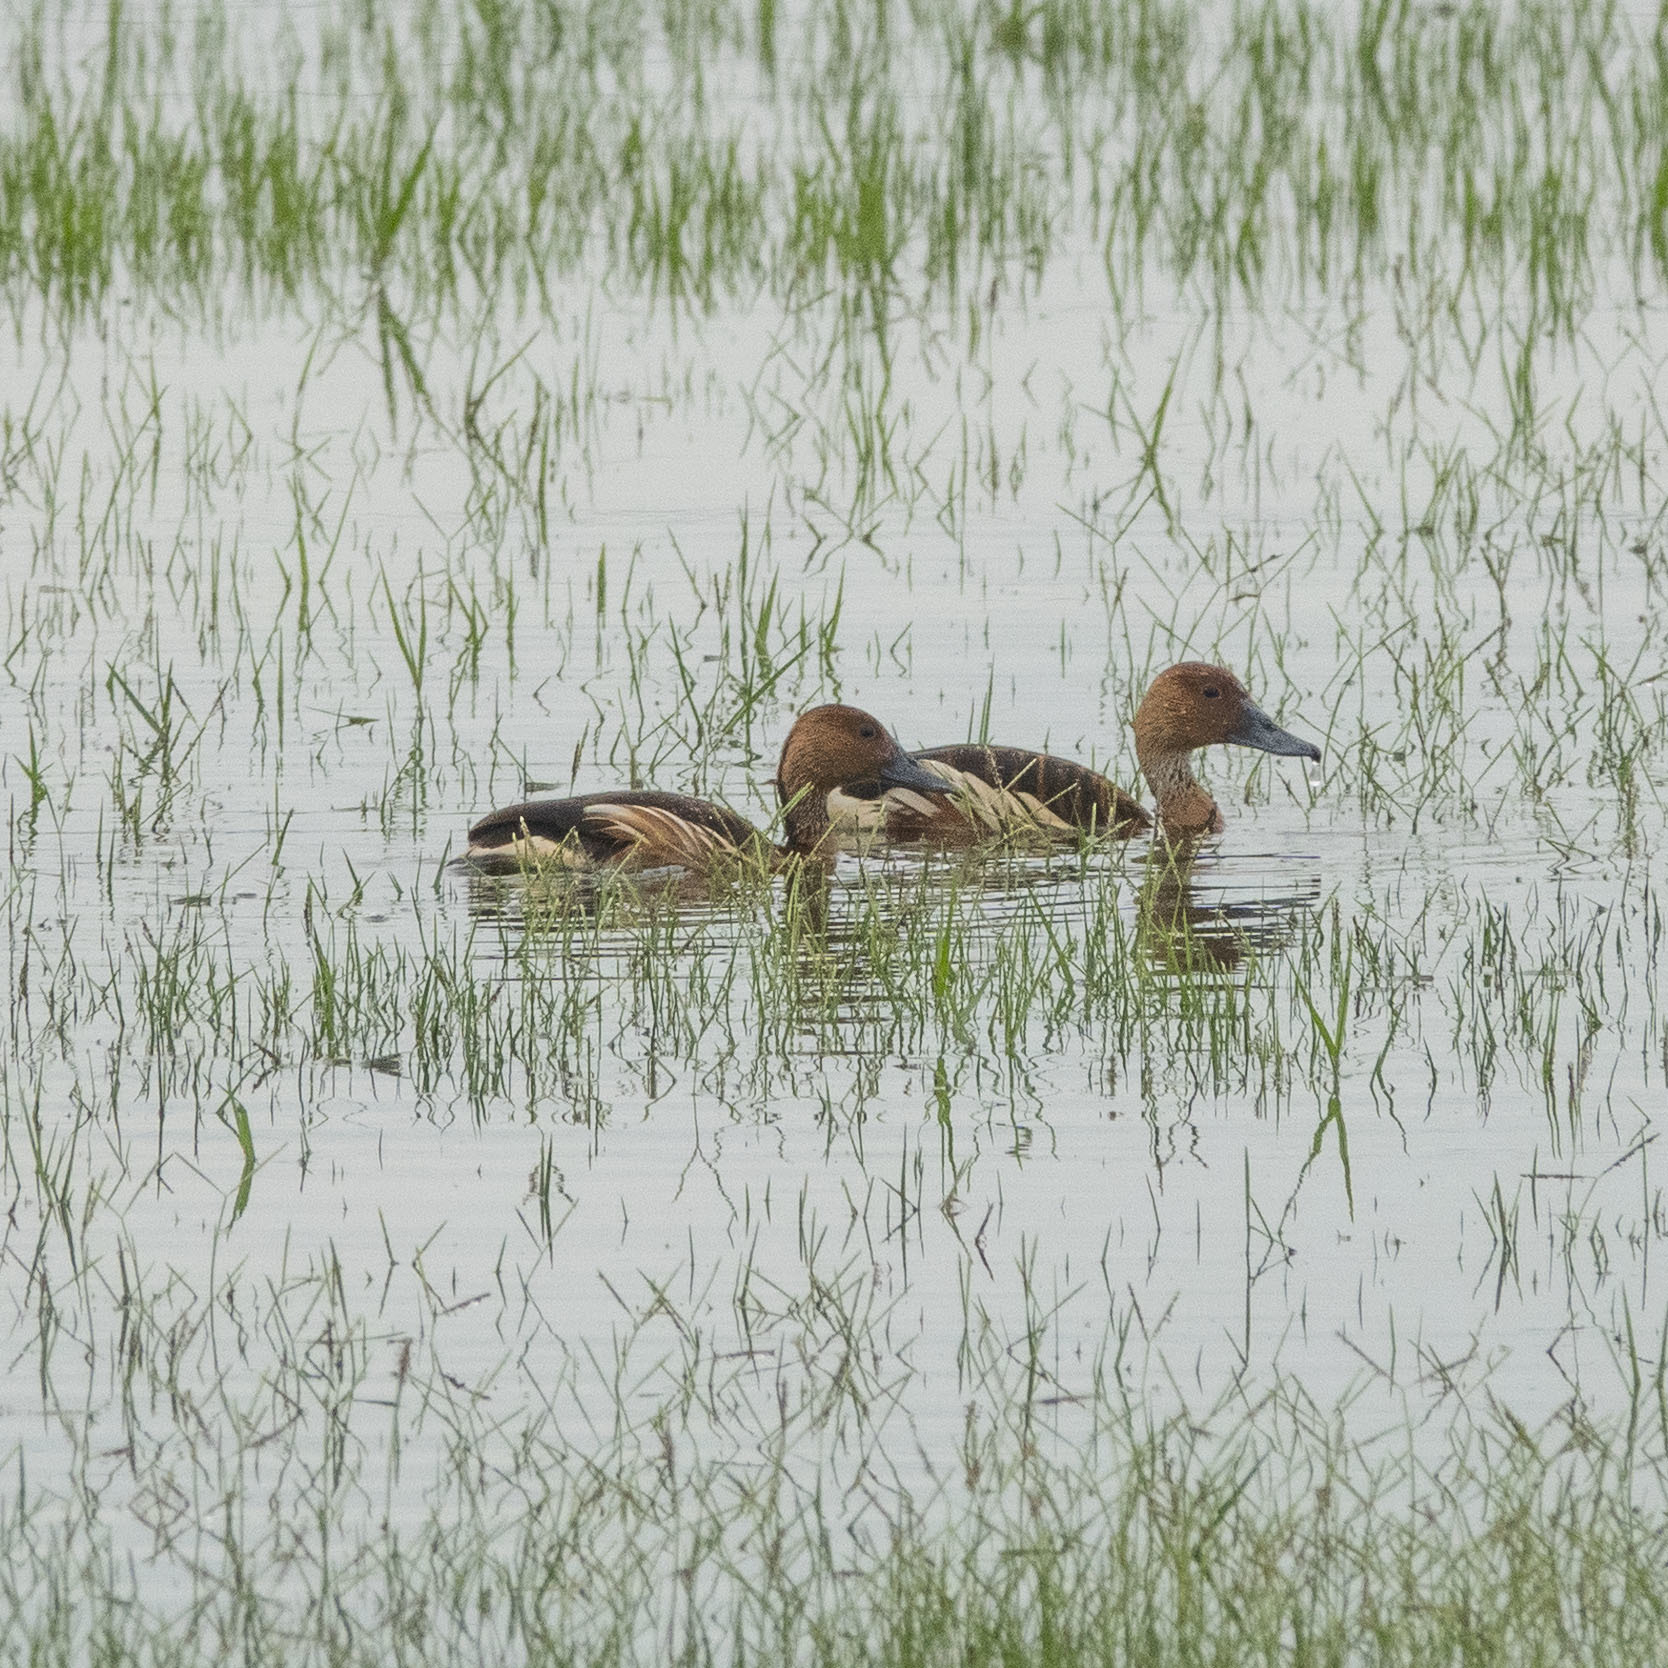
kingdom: Animalia
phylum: Chordata
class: Aves
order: Anseriformes
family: Anatidae
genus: Dendrocygna
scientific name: Dendrocygna bicolor
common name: Fulvous whistling duck
